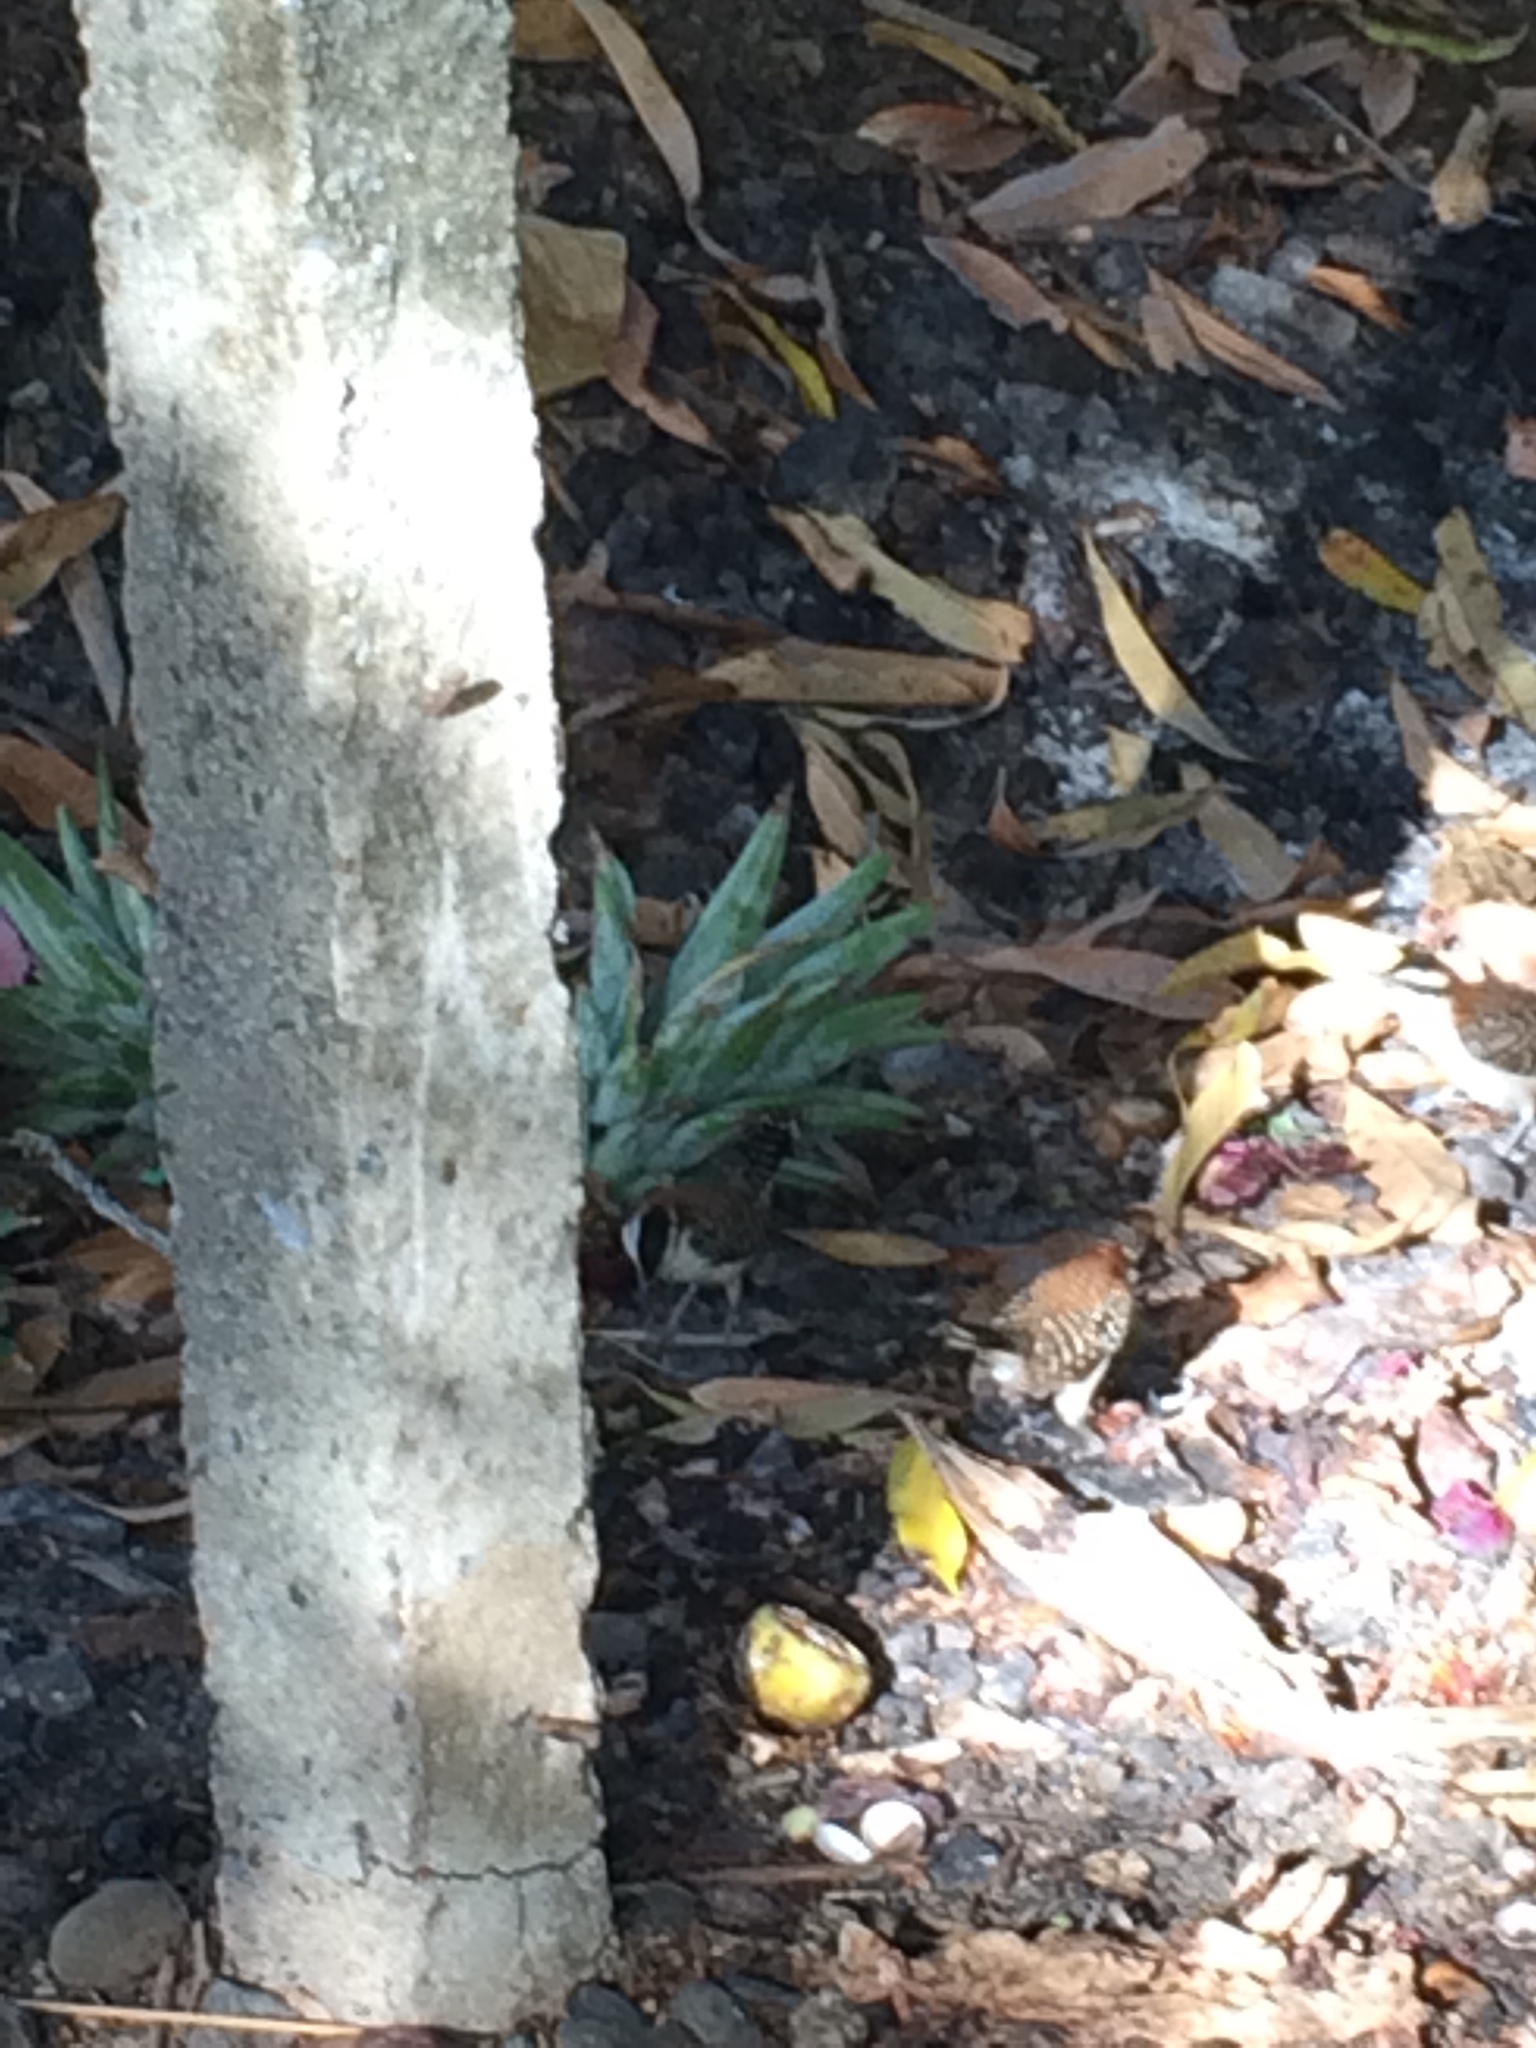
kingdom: Animalia
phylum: Chordata
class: Aves
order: Passeriformes
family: Troglodytidae
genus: Campylorhynchus
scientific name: Campylorhynchus rufinucha
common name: Rufous-naped wren
